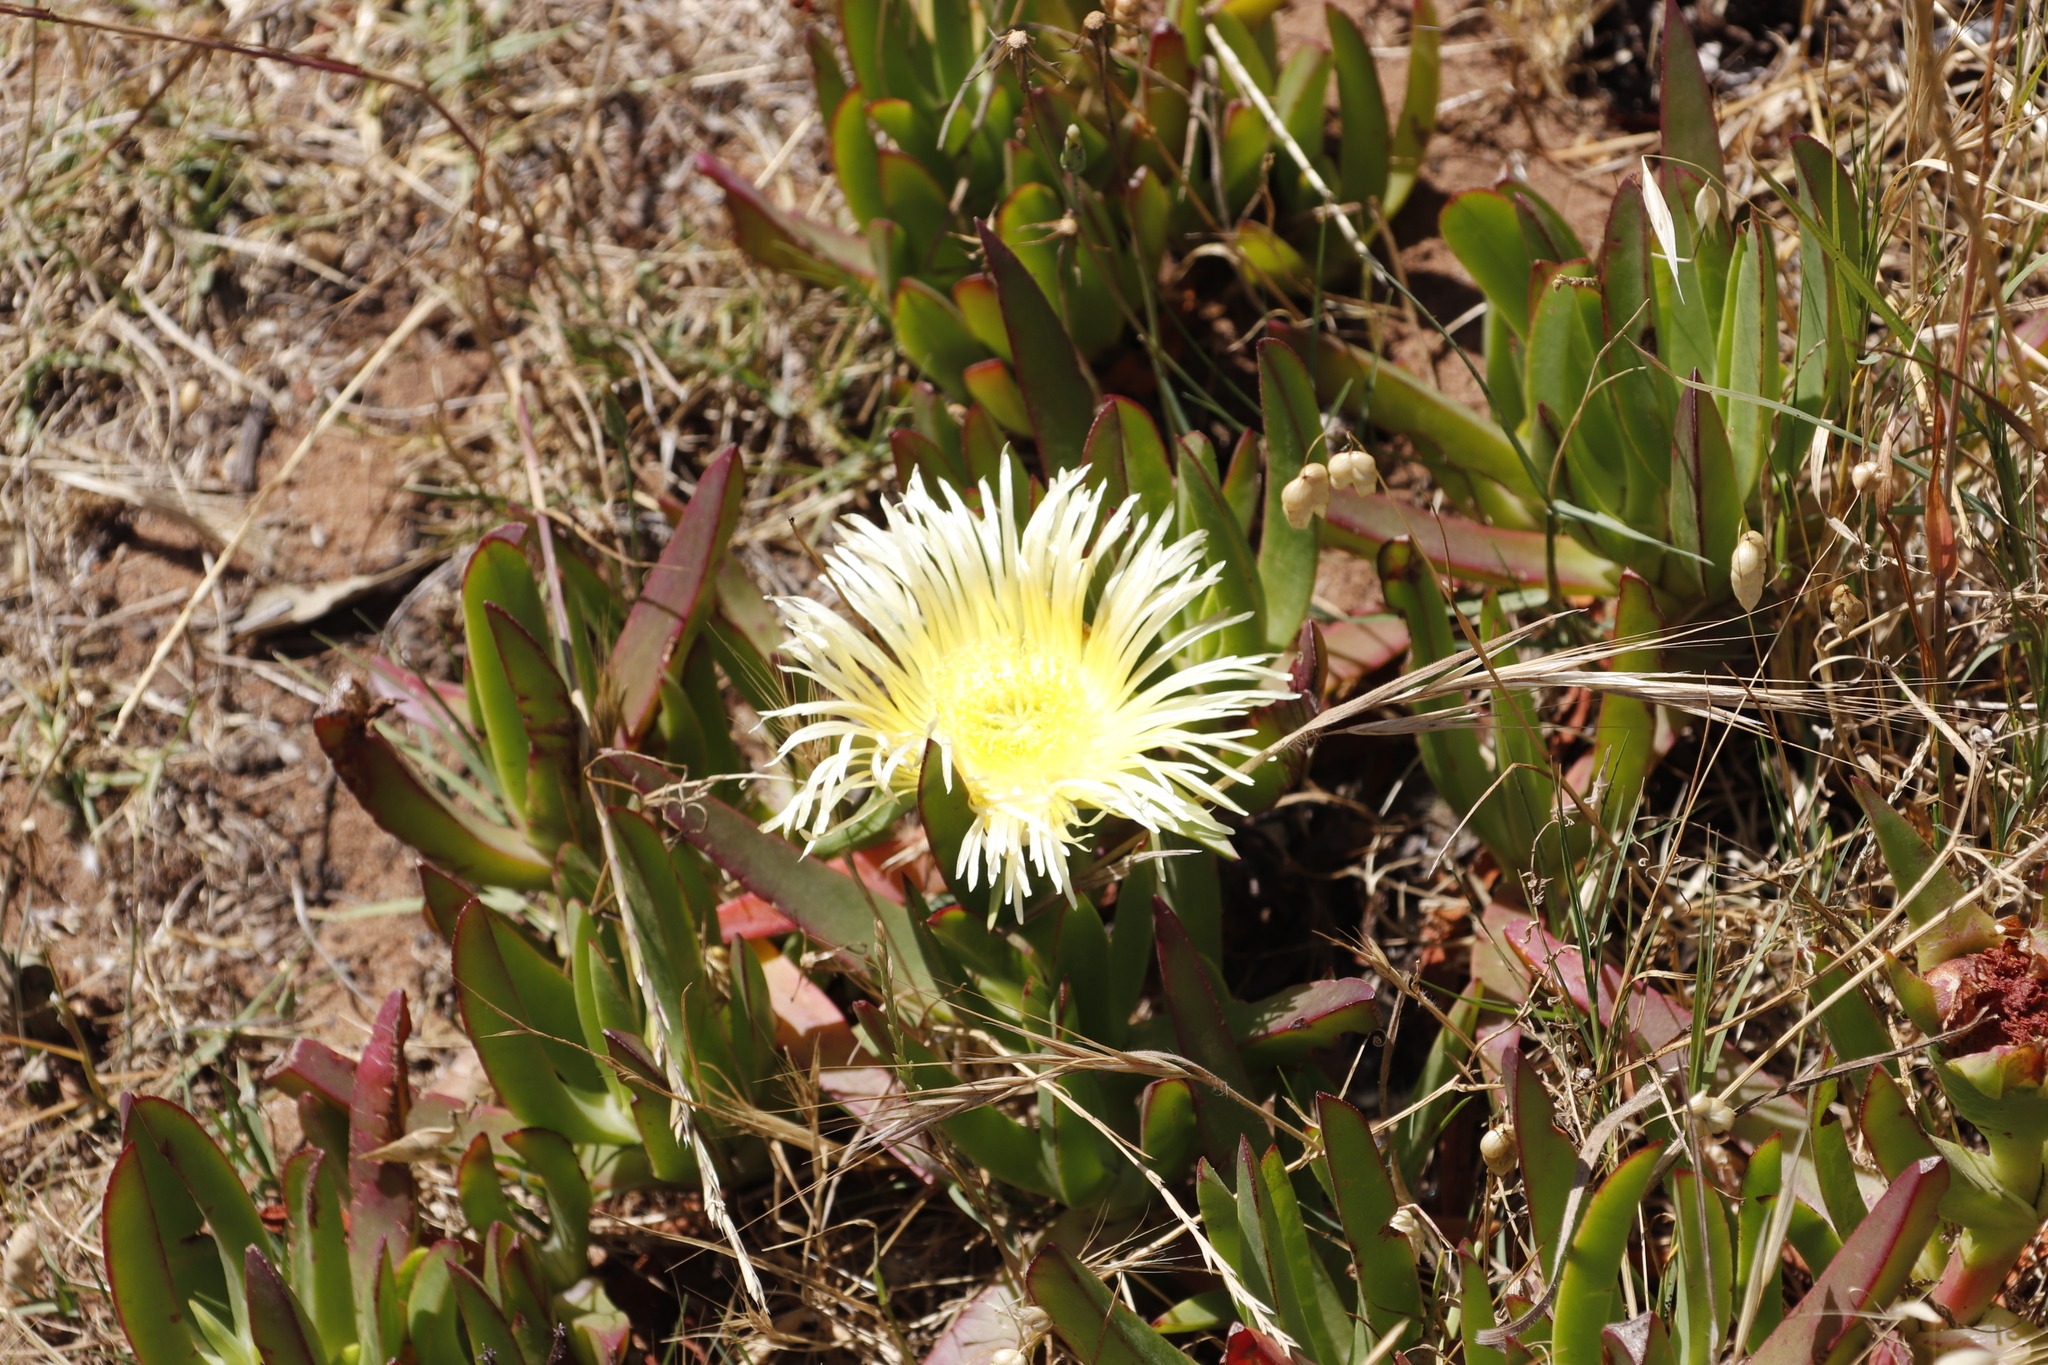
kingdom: Plantae
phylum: Tracheophyta
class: Magnoliopsida
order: Caryophyllales
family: Aizoaceae
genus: Carpobrotus
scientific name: Carpobrotus edulis
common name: Hottentot-fig
